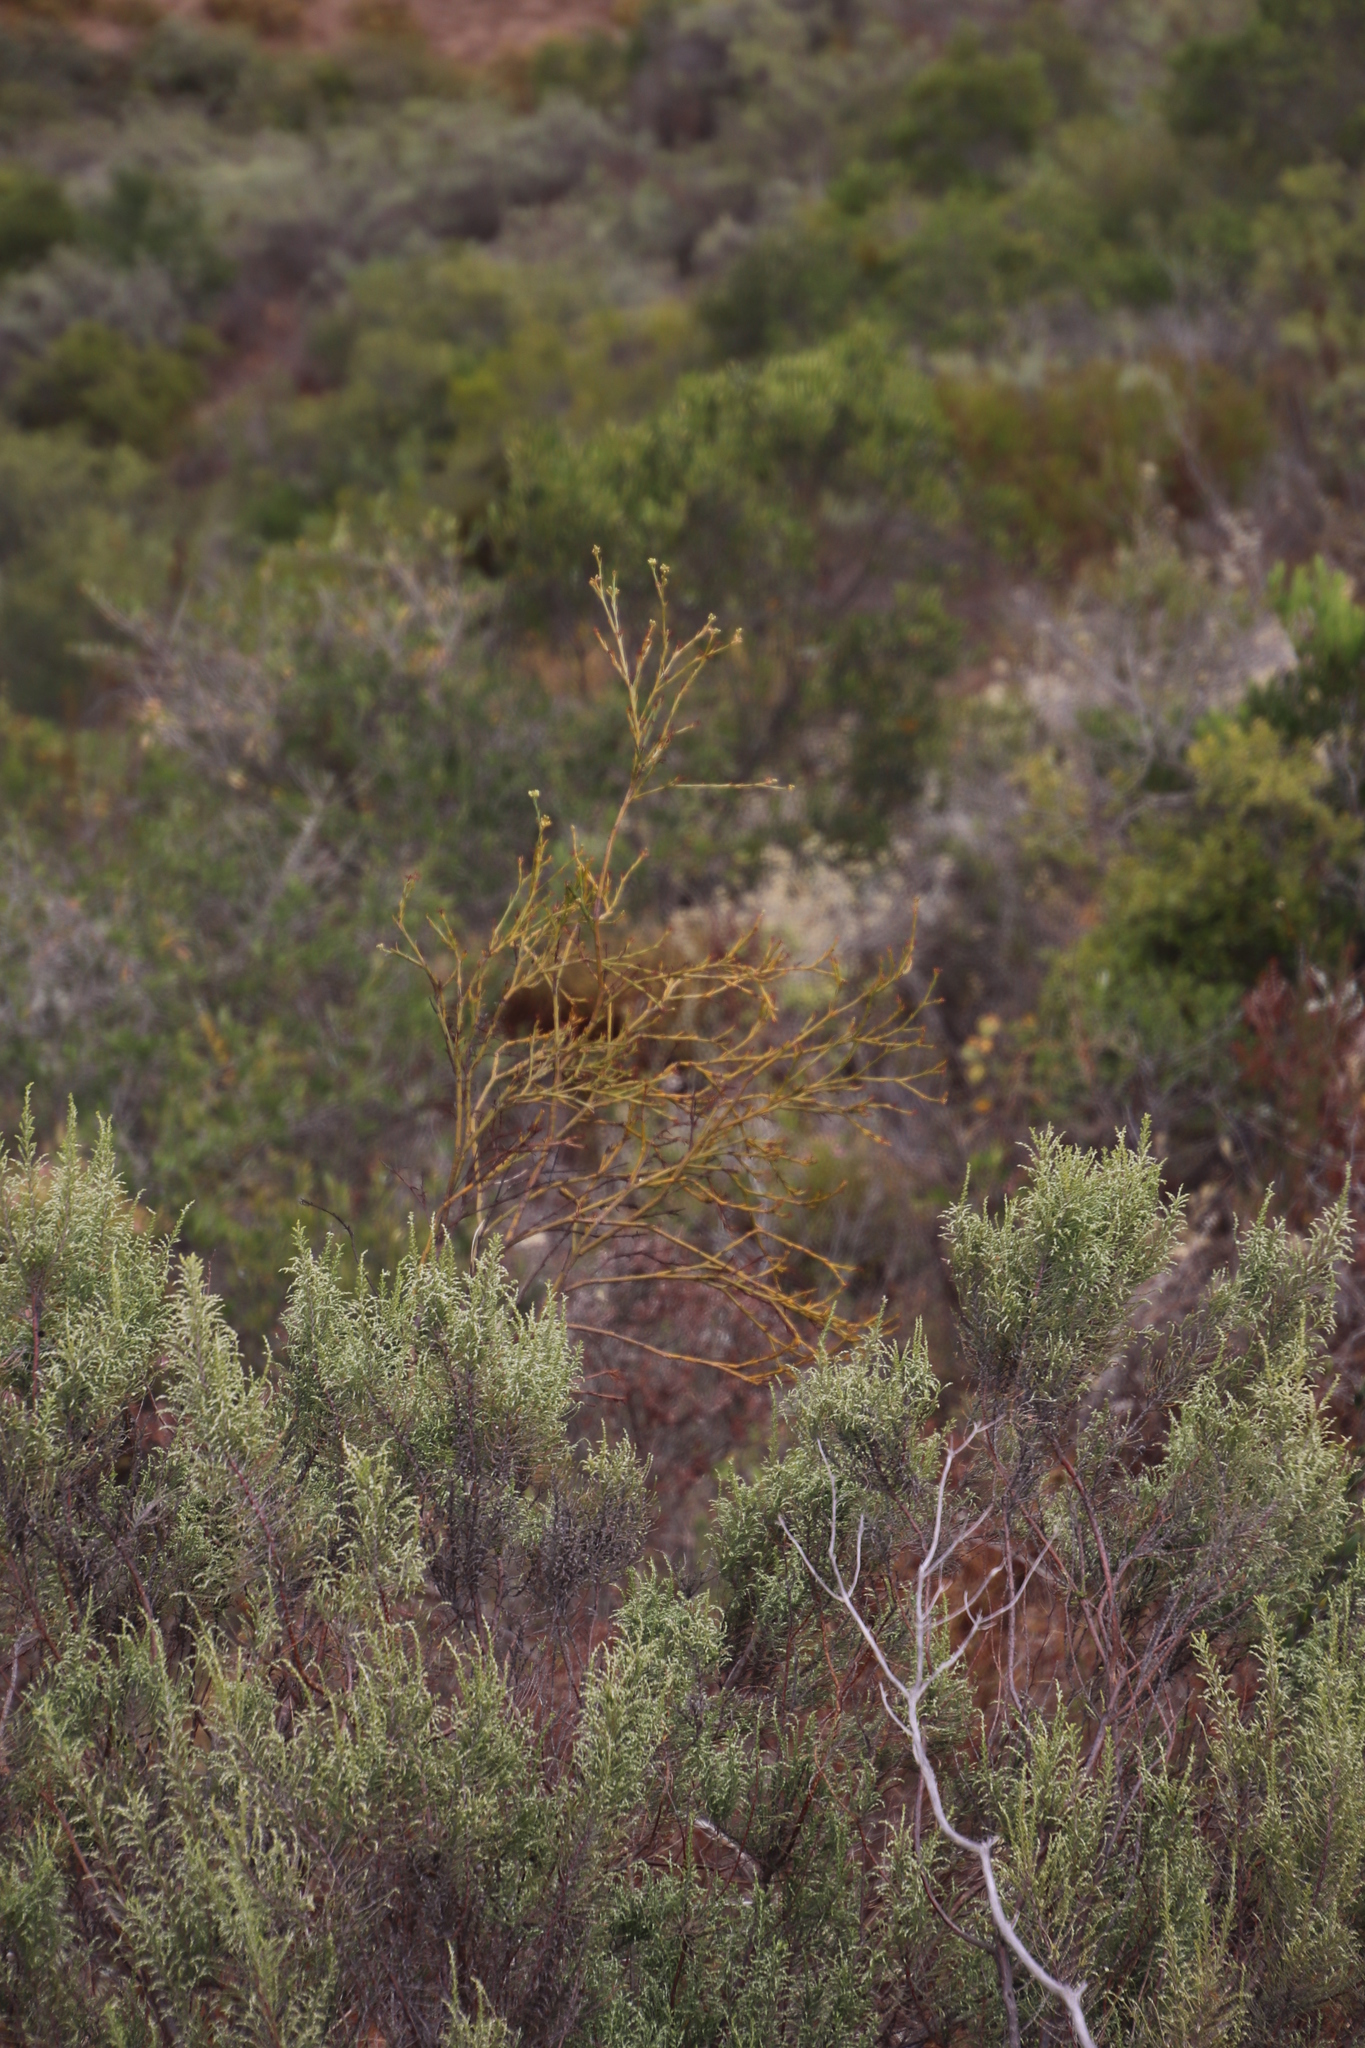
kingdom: Plantae
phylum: Tracheophyta
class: Magnoliopsida
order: Santalales
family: Thesiaceae
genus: Thesium
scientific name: Thesium strictum
